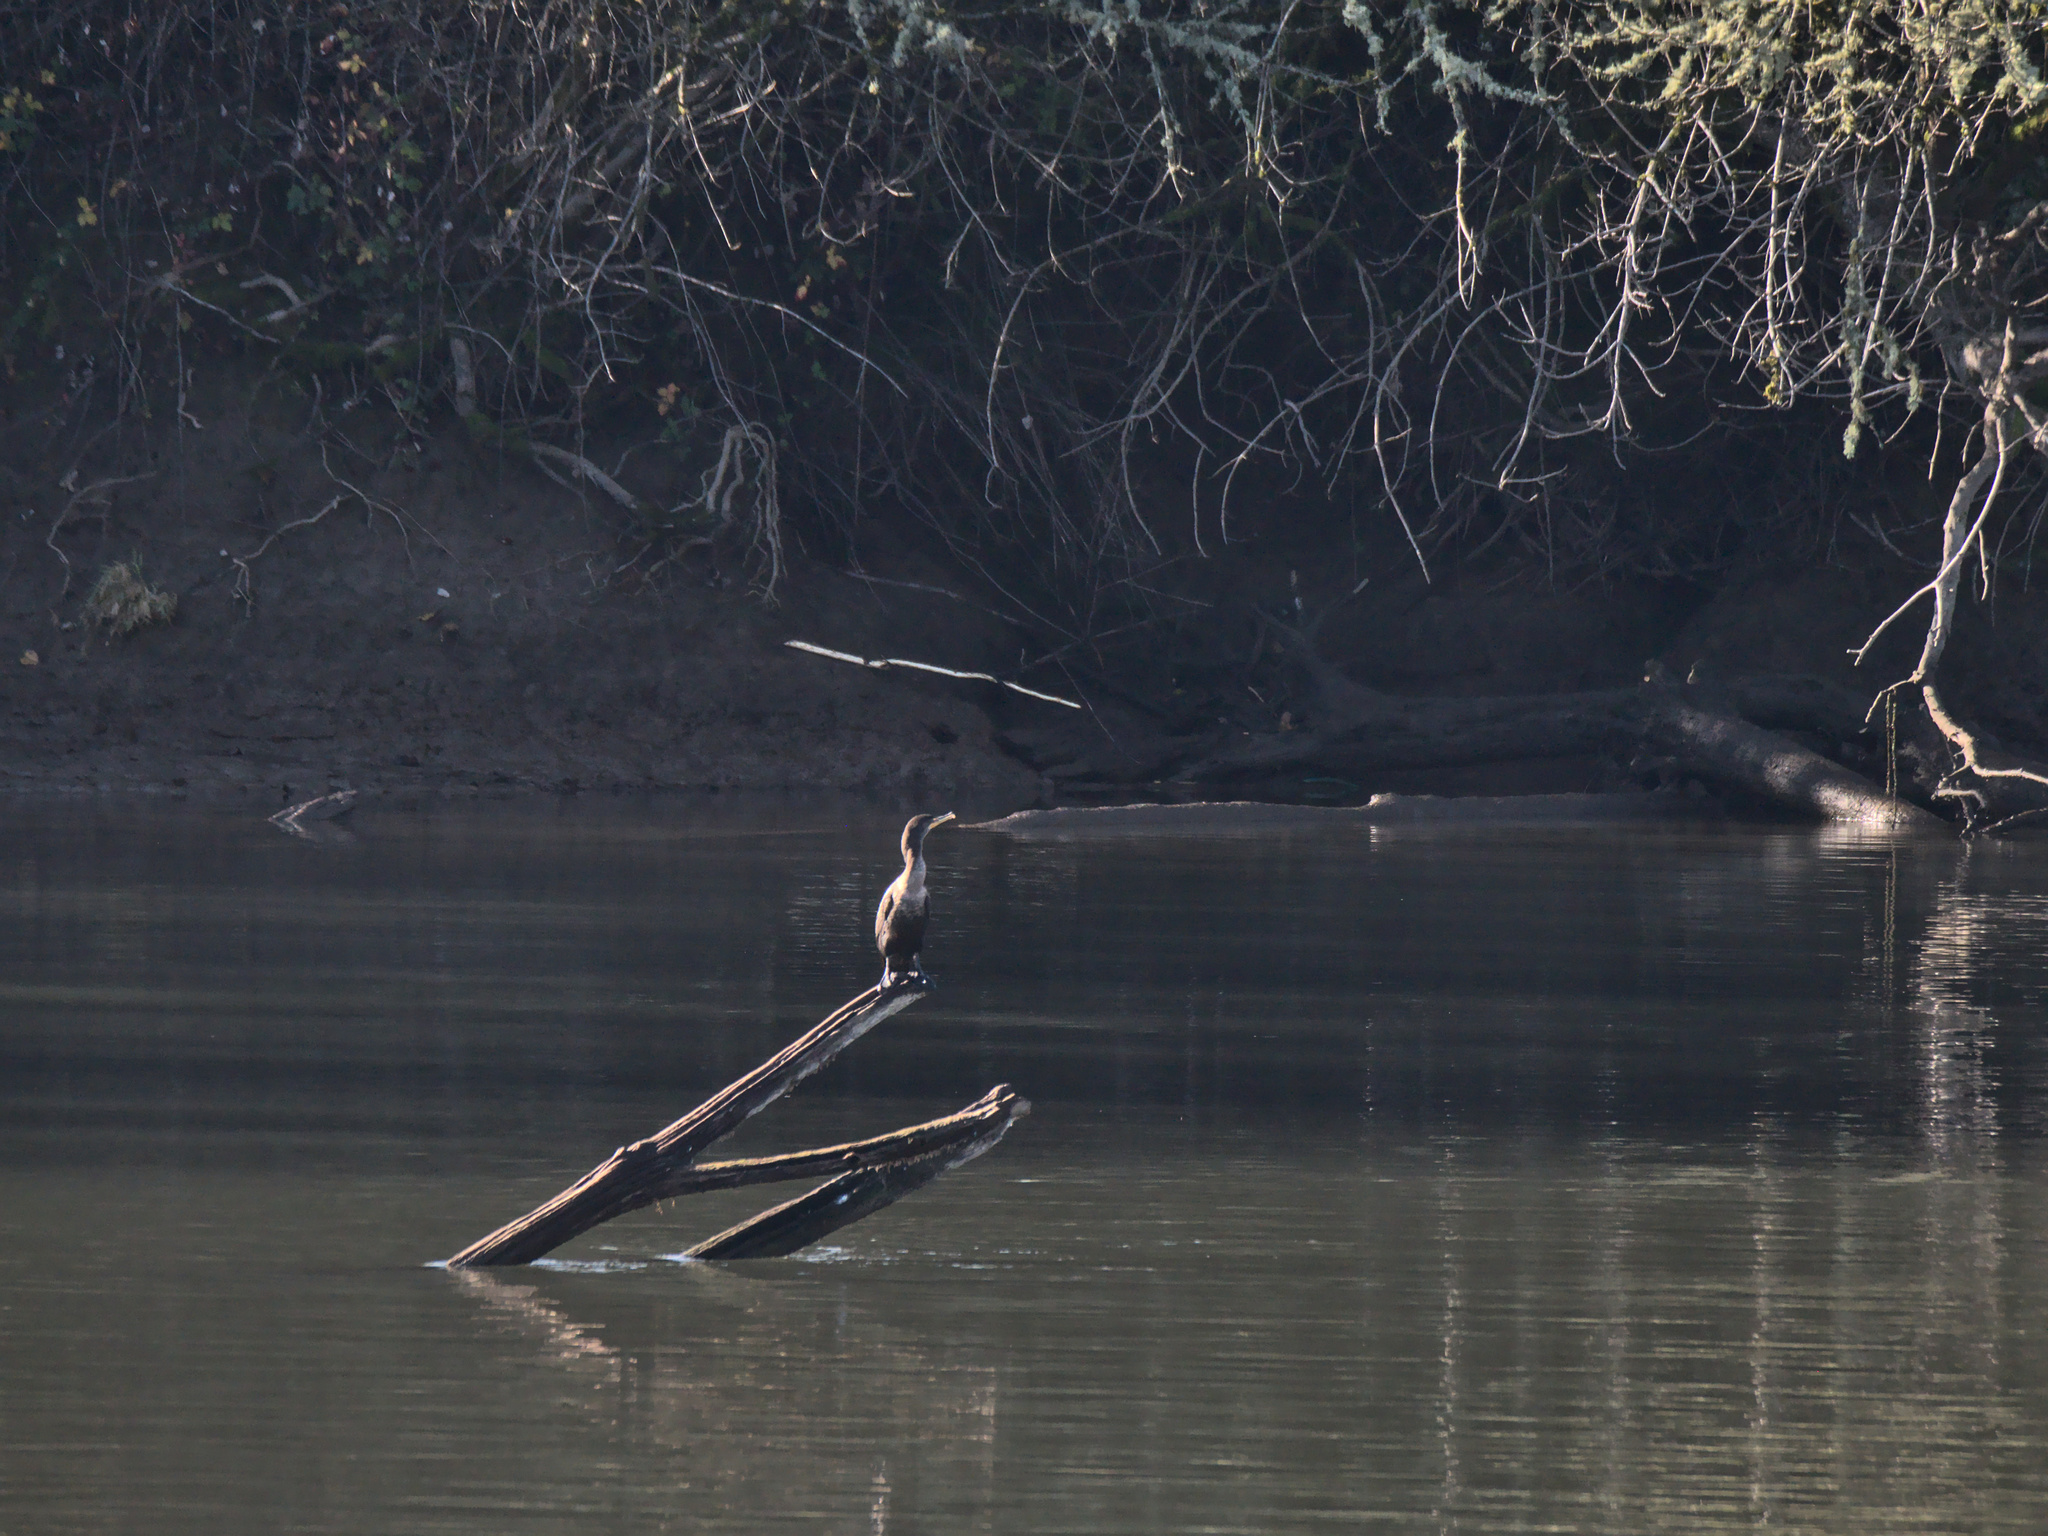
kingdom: Animalia
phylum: Chordata
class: Aves
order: Suliformes
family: Phalacrocoracidae
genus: Phalacrocorax
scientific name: Phalacrocorax auritus
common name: Double-crested cormorant
